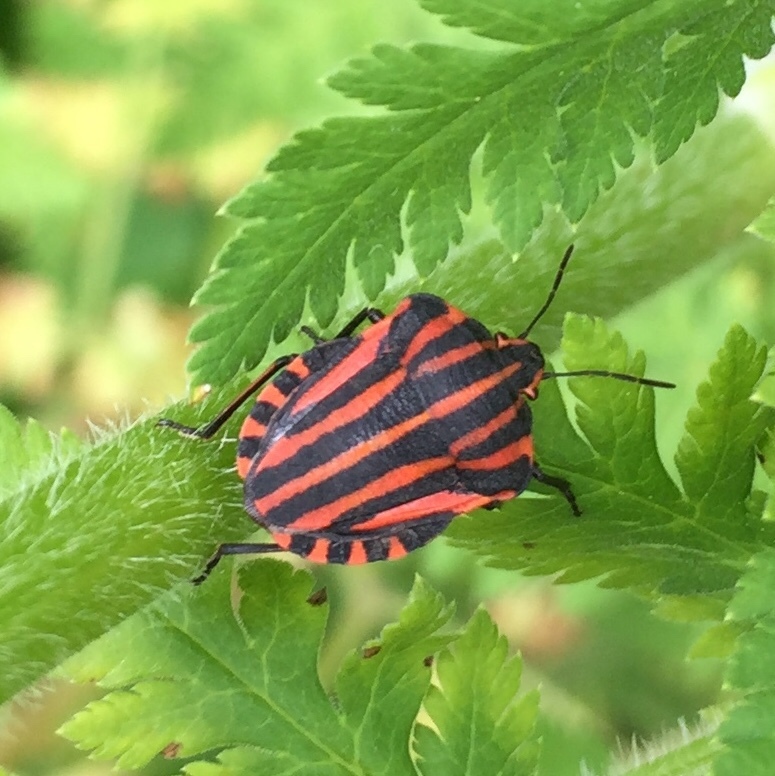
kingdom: Animalia
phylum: Arthropoda
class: Insecta
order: Hemiptera
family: Pentatomidae
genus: Graphosoma
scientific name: Graphosoma italicum
